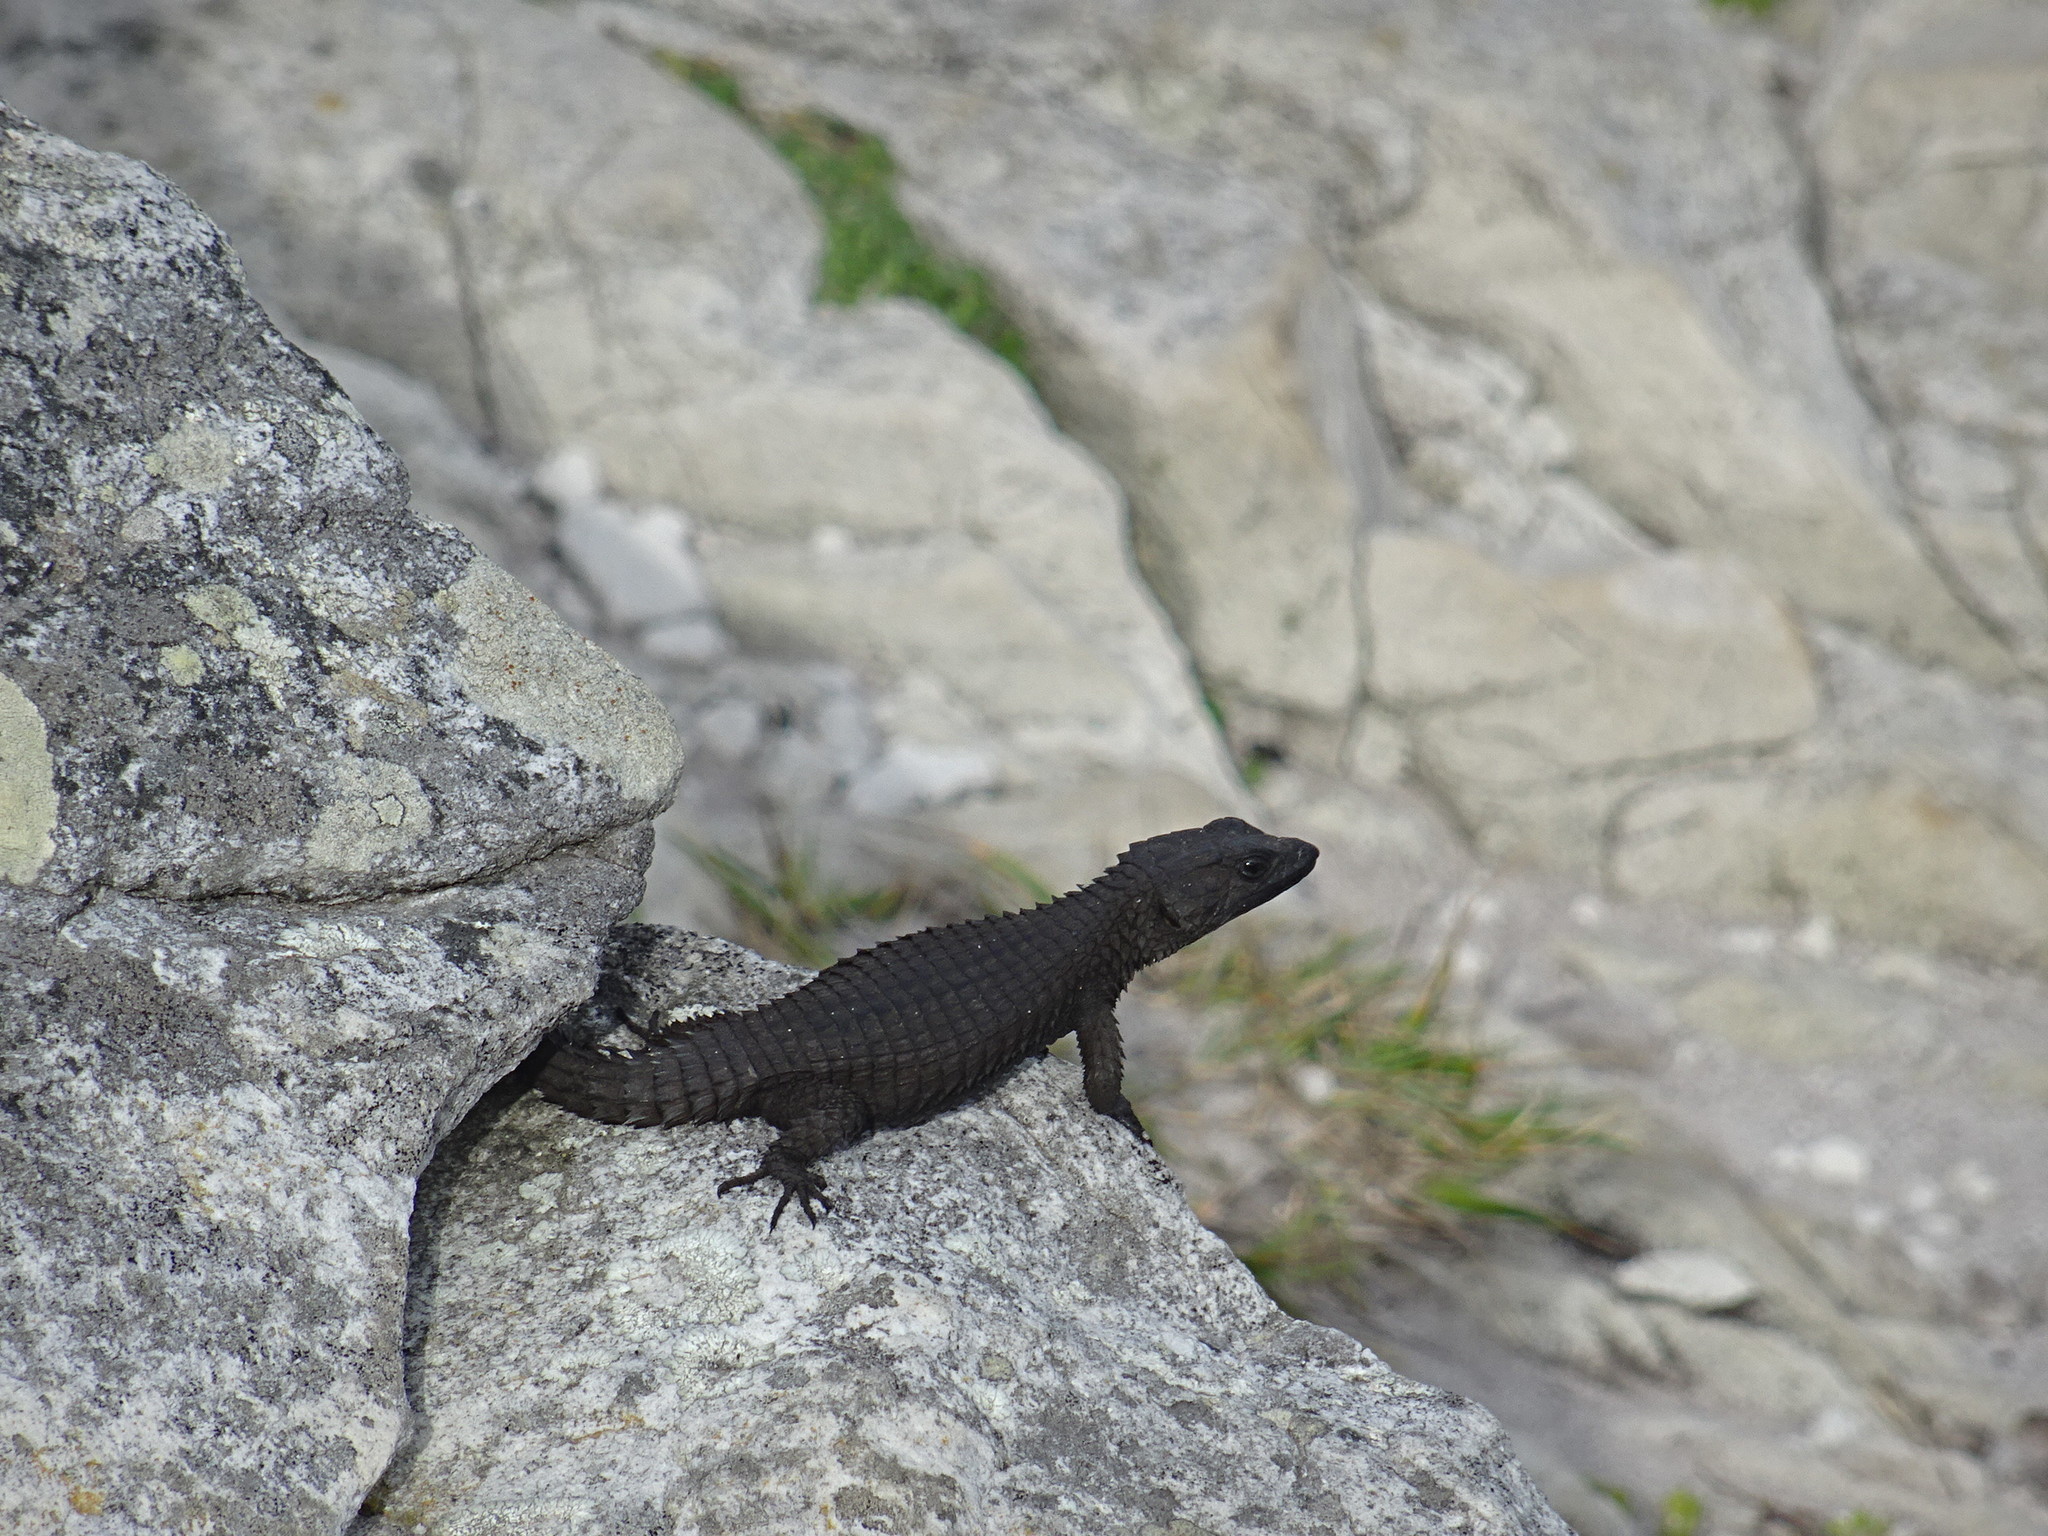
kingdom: Animalia
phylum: Chordata
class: Squamata
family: Cordylidae
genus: Cordylus
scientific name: Cordylus niger
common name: Black girdled lizard
